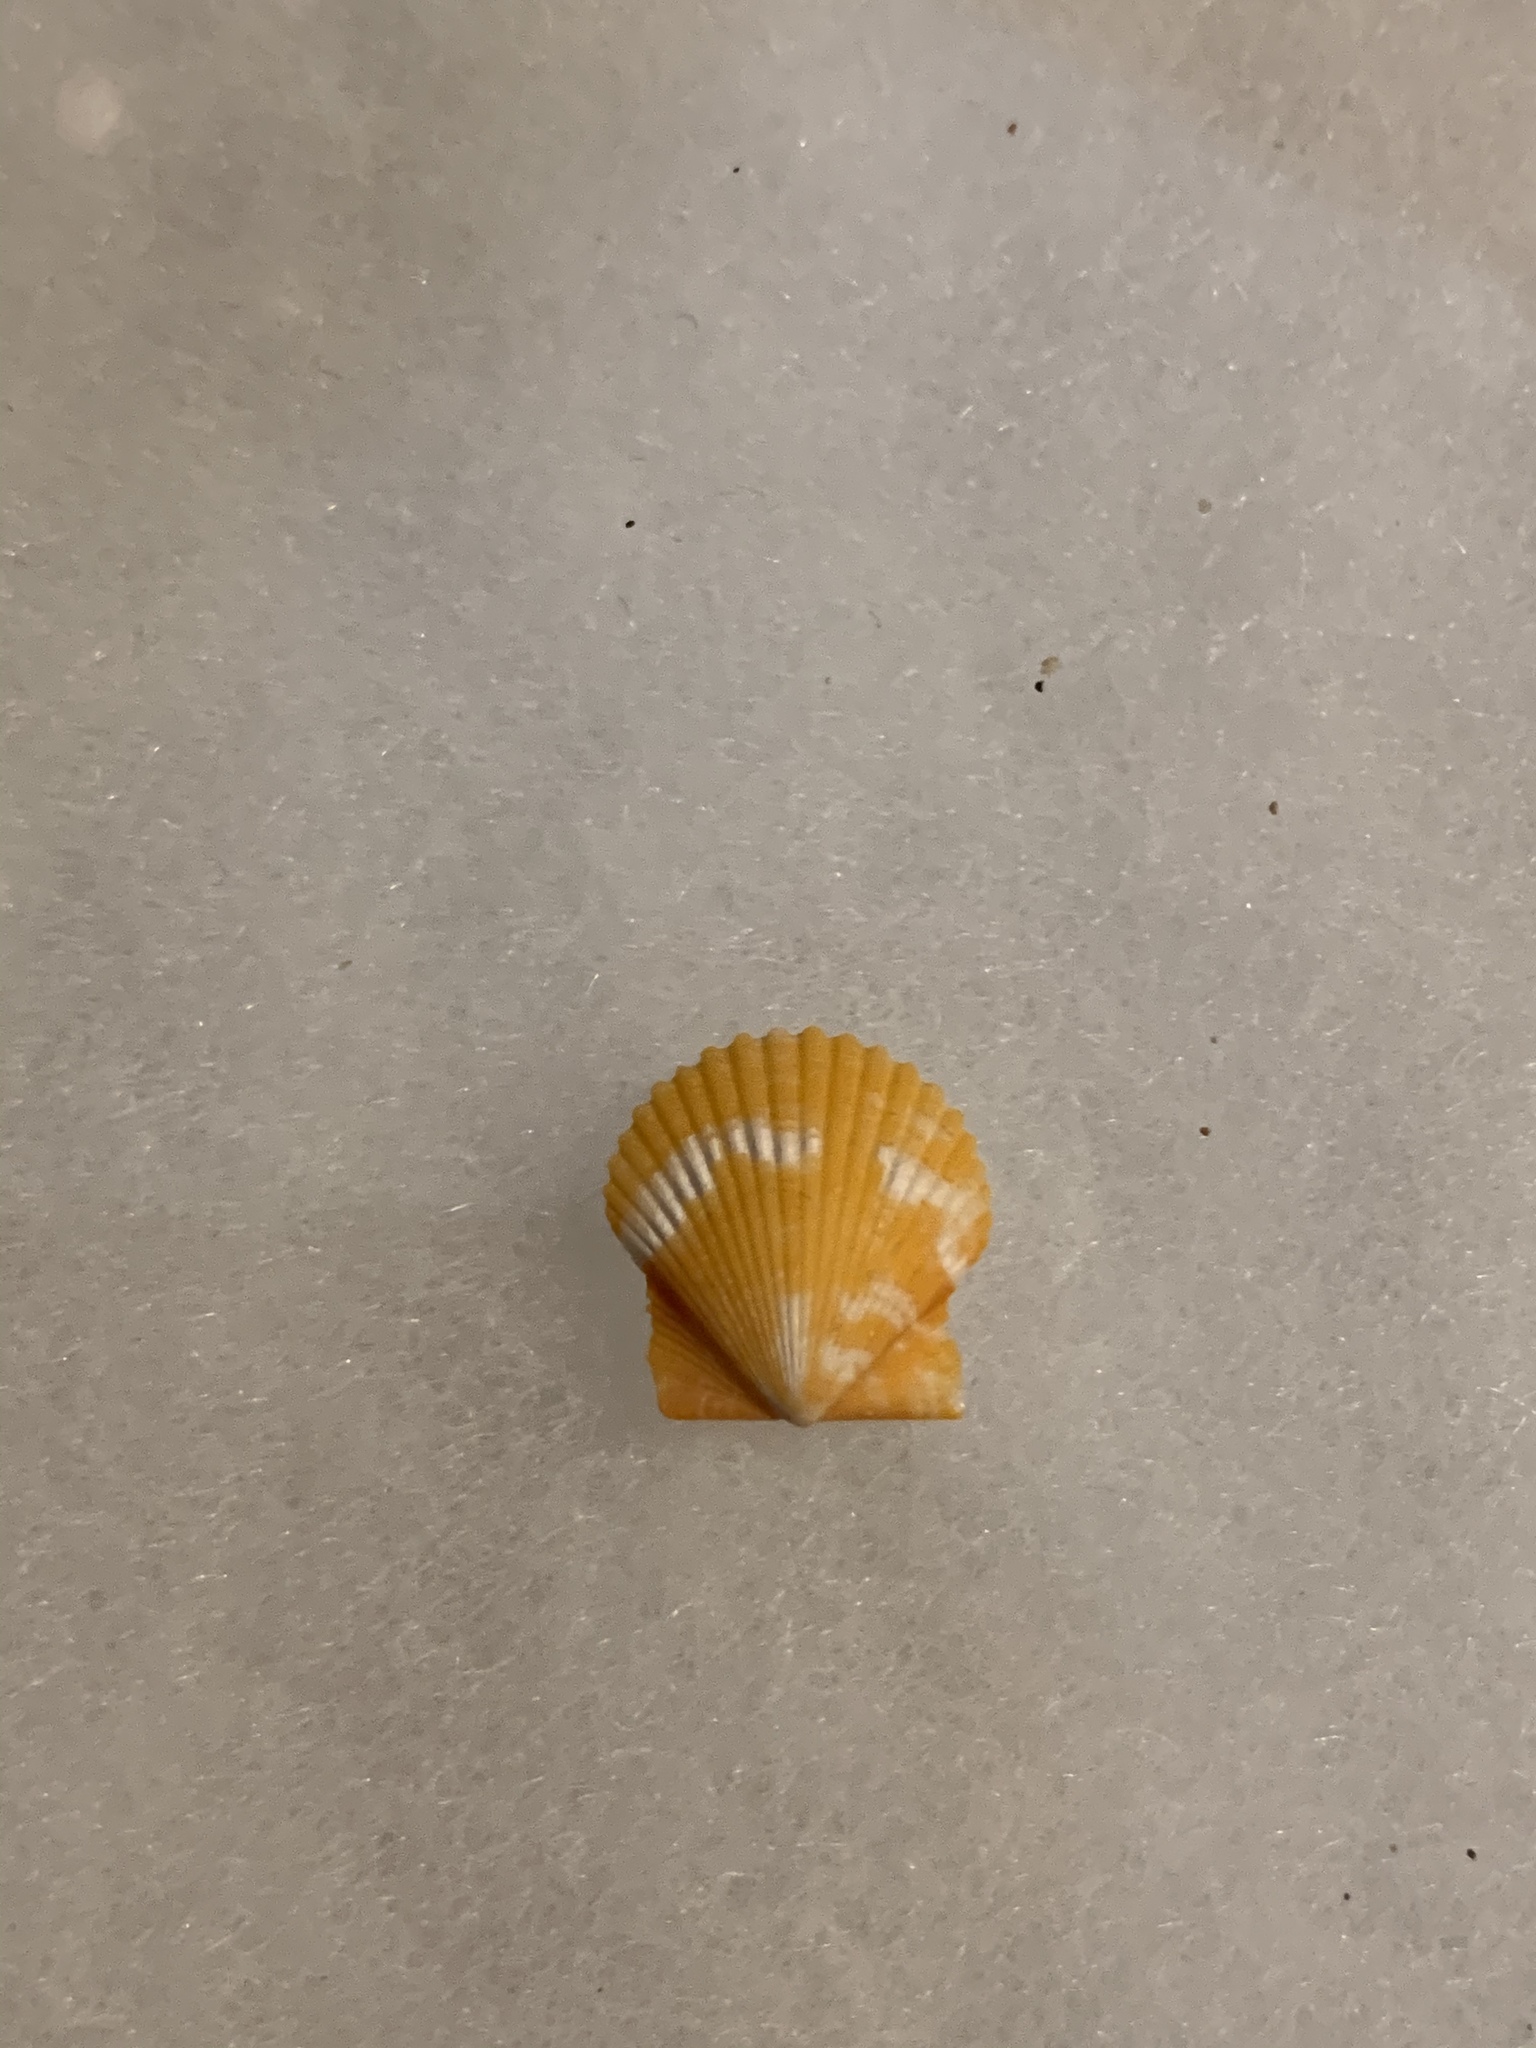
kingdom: Animalia
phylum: Mollusca
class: Bivalvia
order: Pectinida
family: Pectinidae
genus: Argopecten
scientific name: Argopecten gibbus
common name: Atlantic calico scallop
